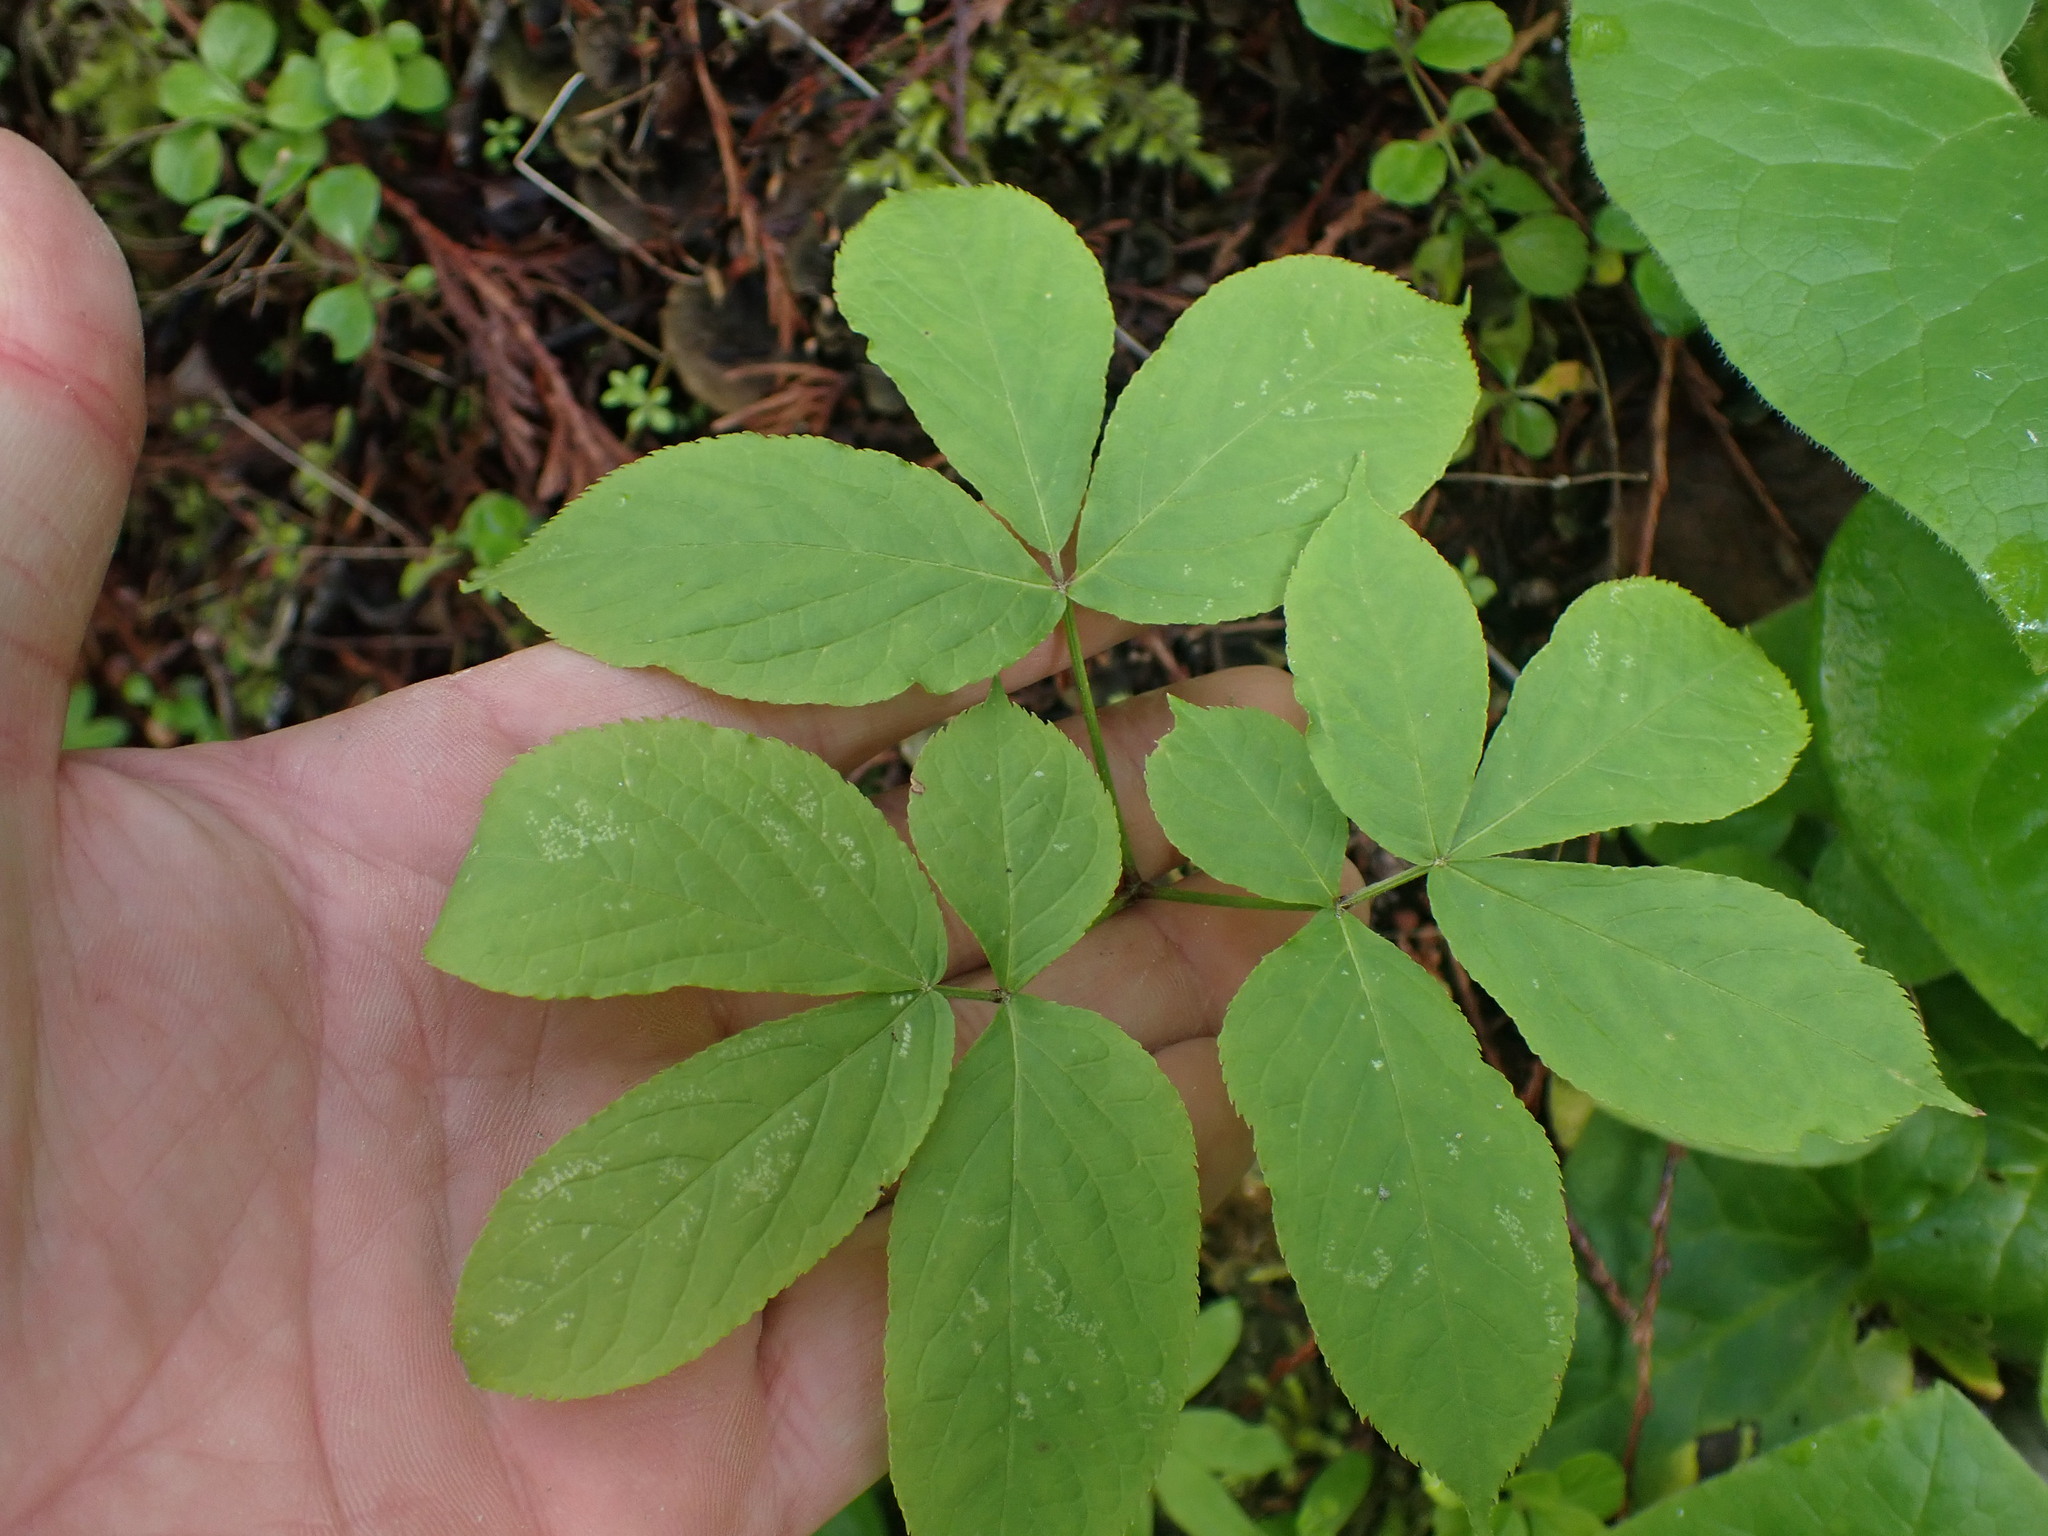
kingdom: Plantae
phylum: Tracheophyta
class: Magnoliopsida
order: Apiales
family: Araliaceae
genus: Aralia
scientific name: Aralia nudicaulis
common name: Wild sarsaparilla
